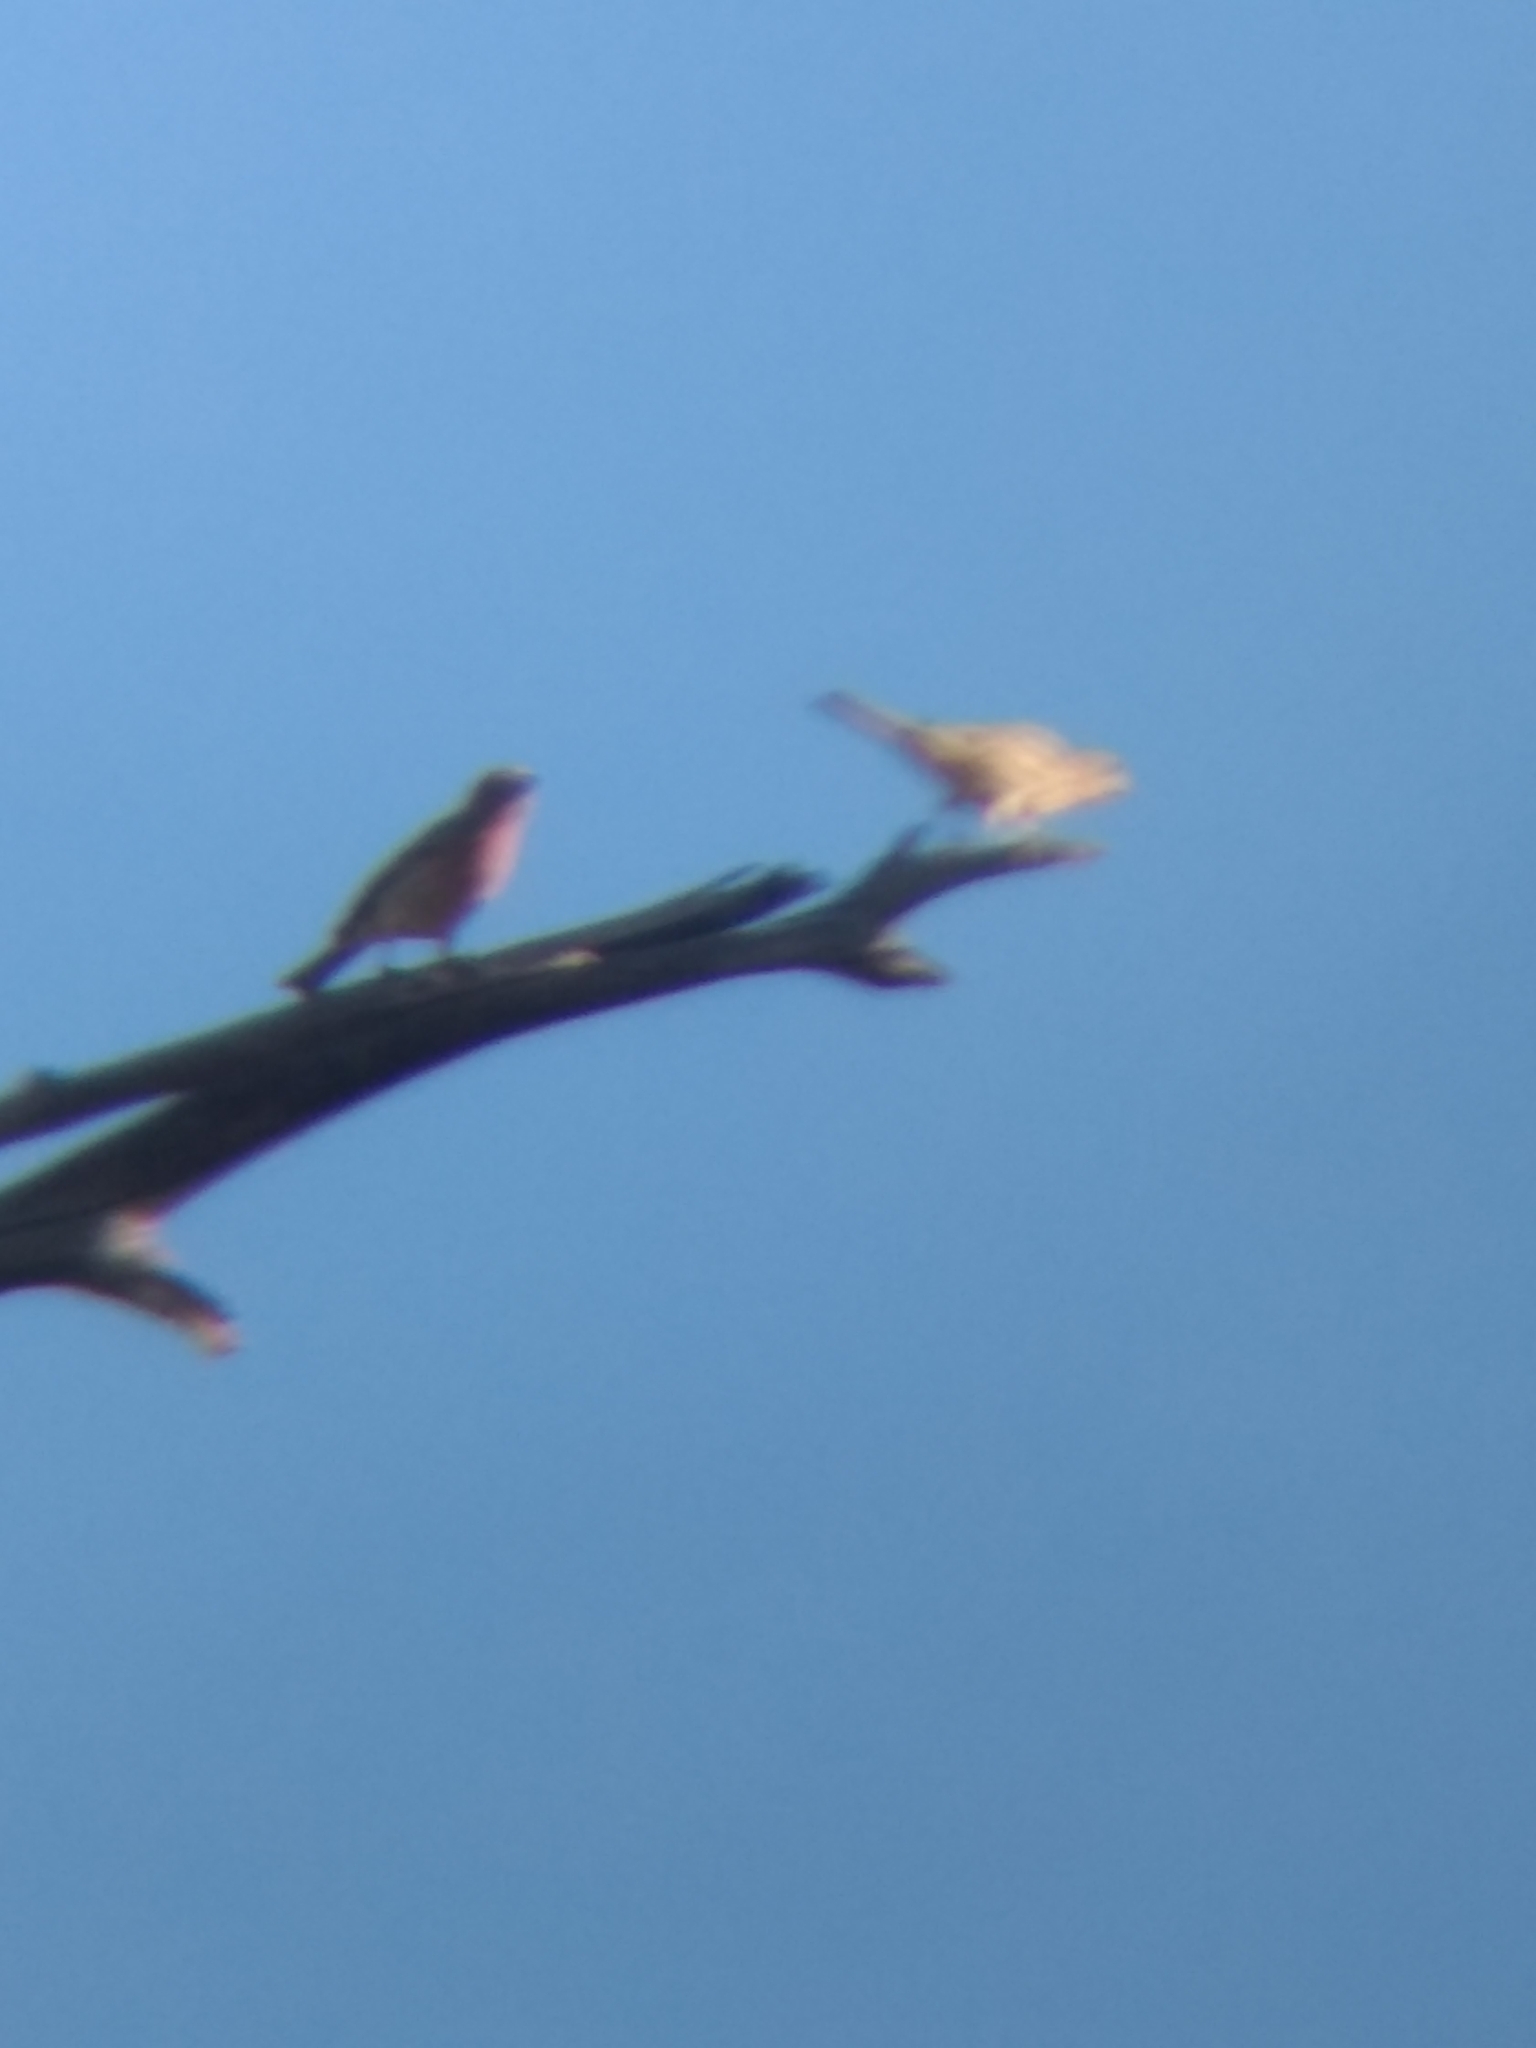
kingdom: Animalia
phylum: Chordata
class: Aves
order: Passeriformes
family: Fringillidae
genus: Haemorhous
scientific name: Haemorhous mexicanus
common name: House finch
